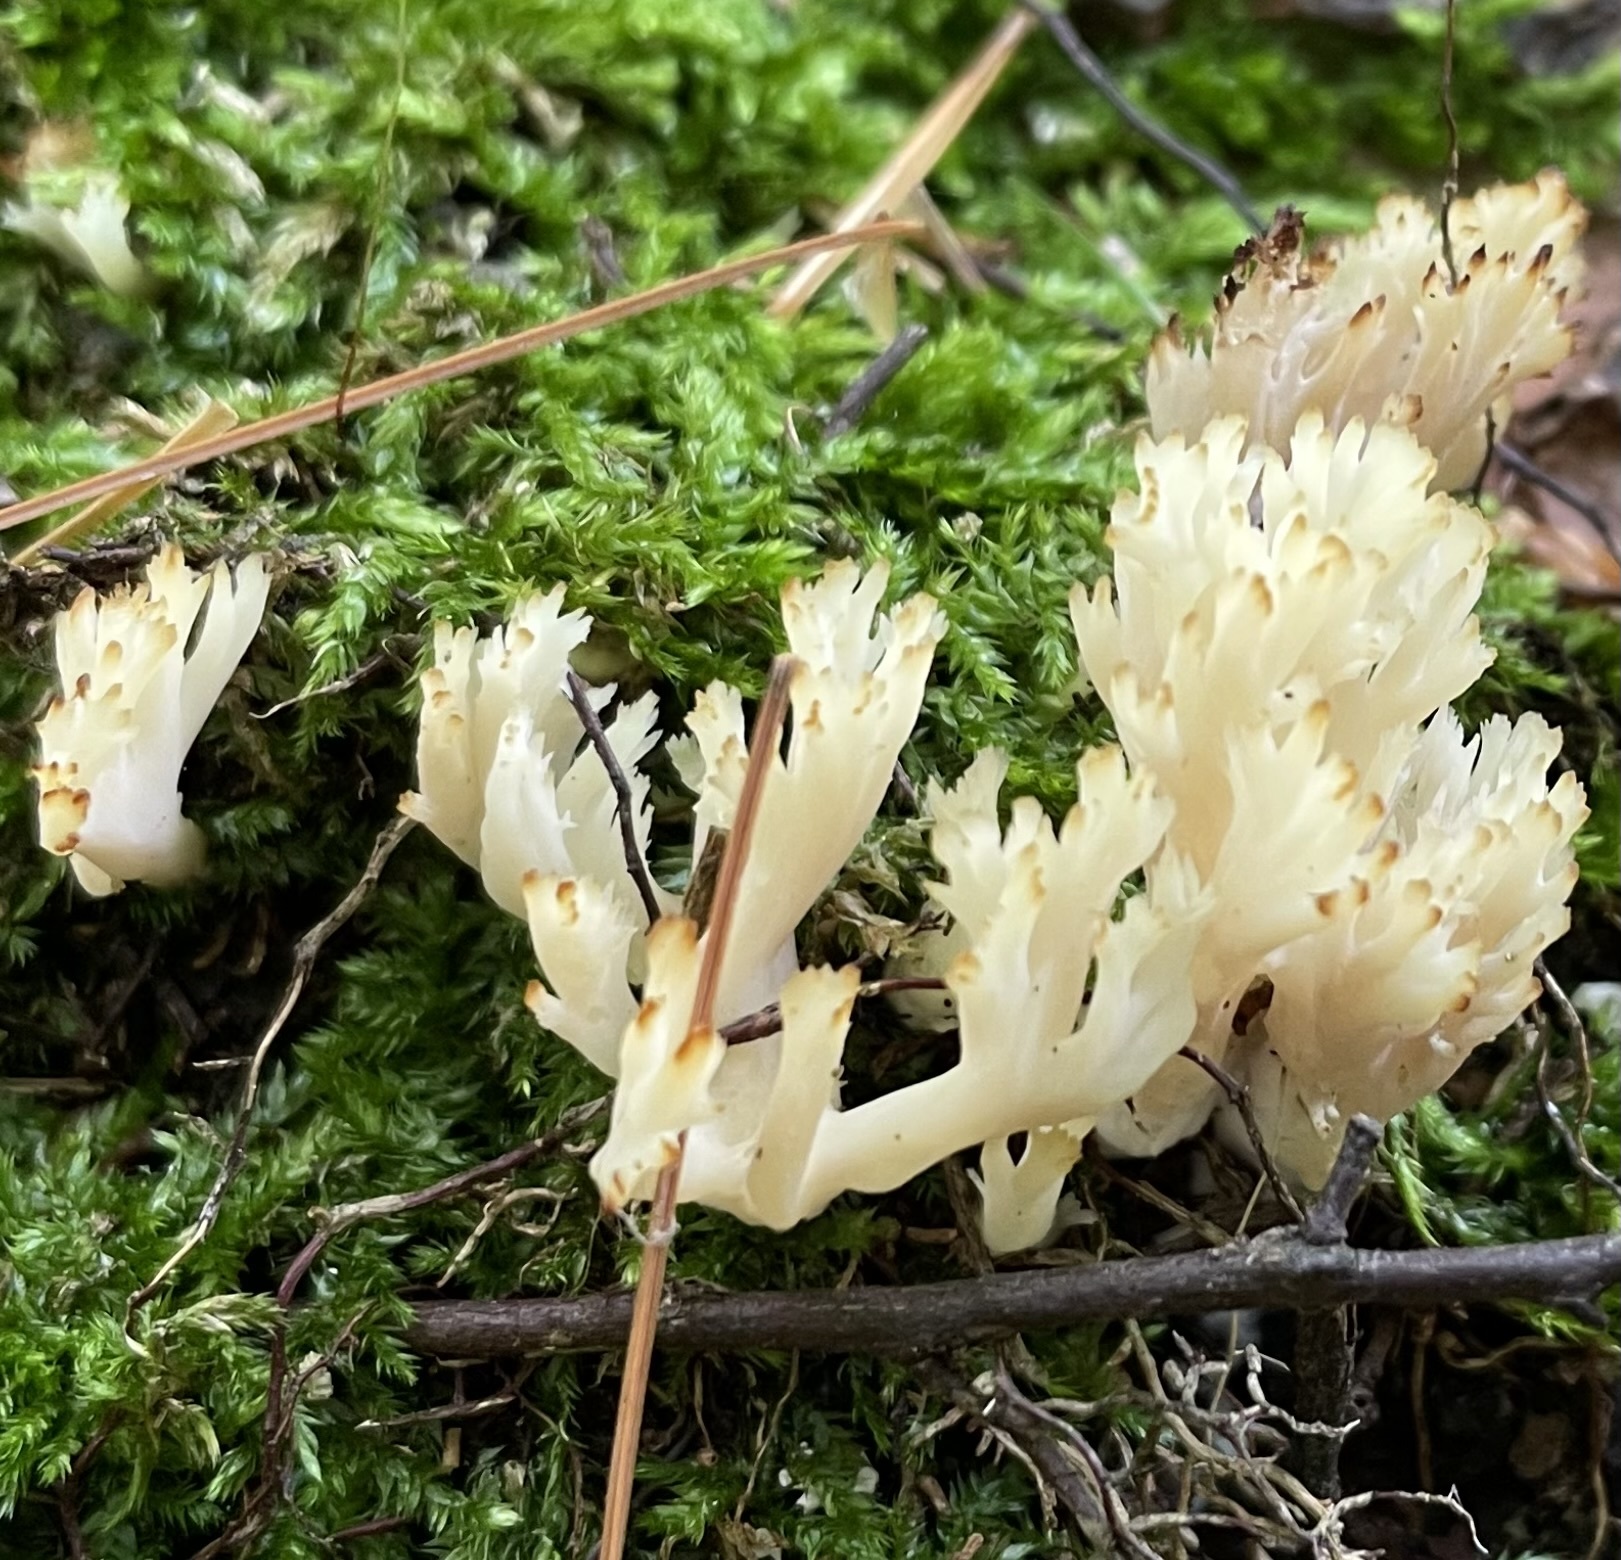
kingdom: Fungi
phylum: Basidiomycota
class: Agaricomycetes
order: Cantharellales
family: Hydnaceae
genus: Clavulina
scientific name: Clavulina coralloides
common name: Crested coral
